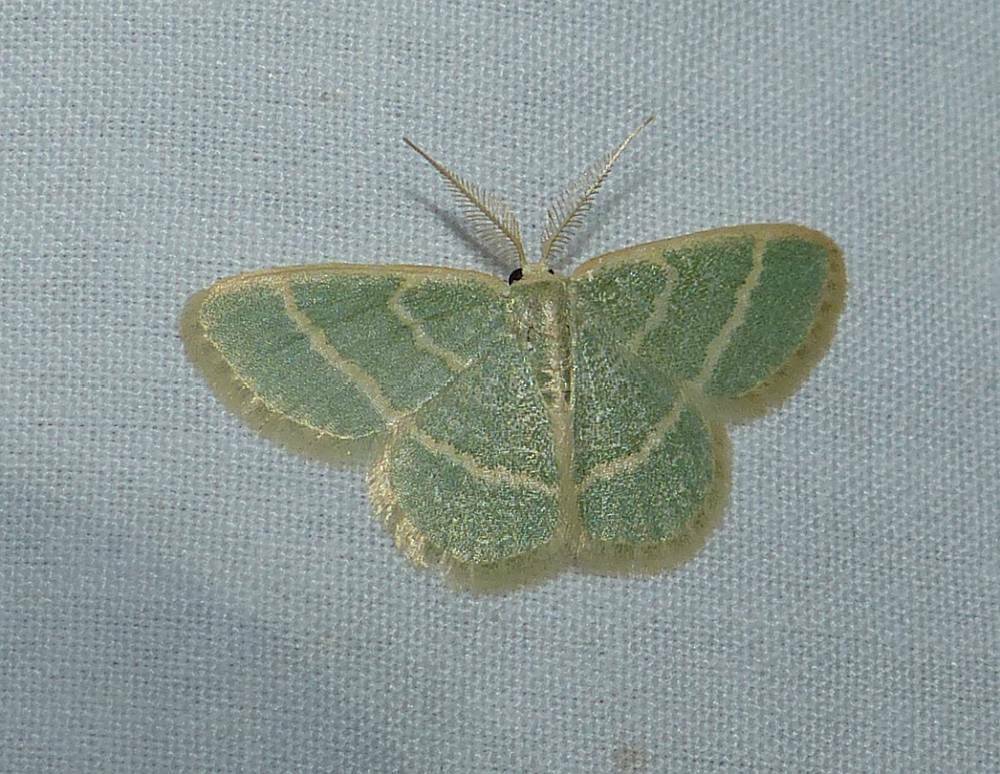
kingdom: Animalia
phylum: Arthropoda
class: Insecta
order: Lepidoptera
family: Geometridae
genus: Chlorochlamys
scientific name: Chlorochlamys chloroleucaria
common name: Blackberry looper
